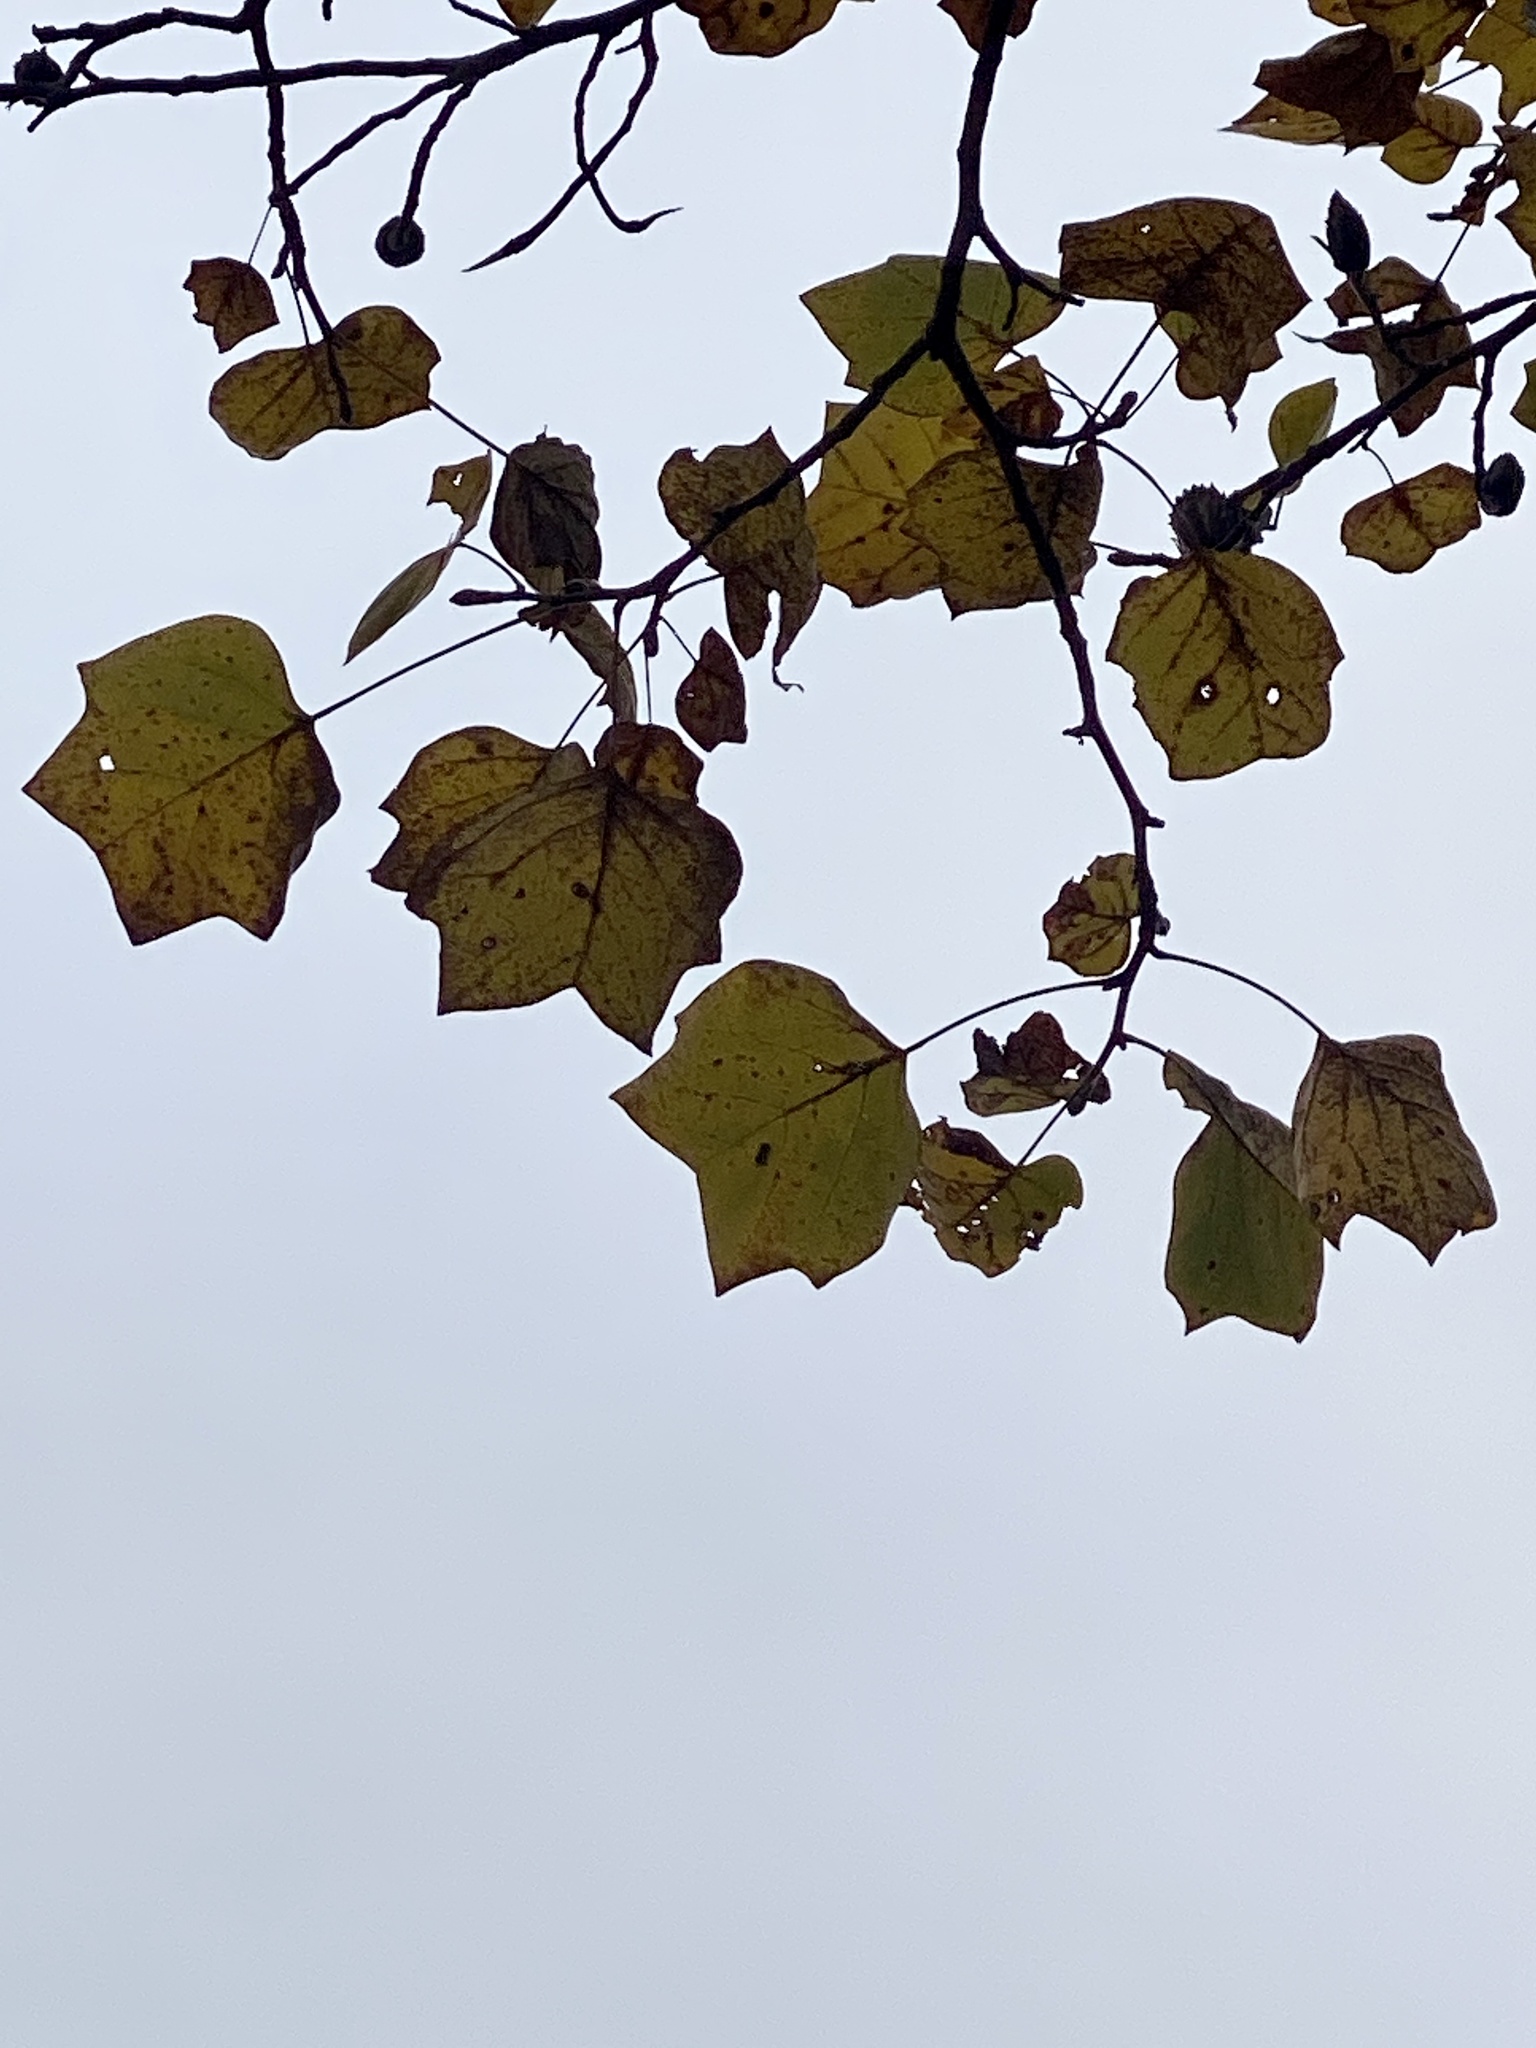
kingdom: Plantae
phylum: Tracheophyta
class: Magnoliopsida
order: Magnoliales
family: Magnoliaceae
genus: Liriodendron
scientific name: Liriodendron tulipifera
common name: Tulip tree
